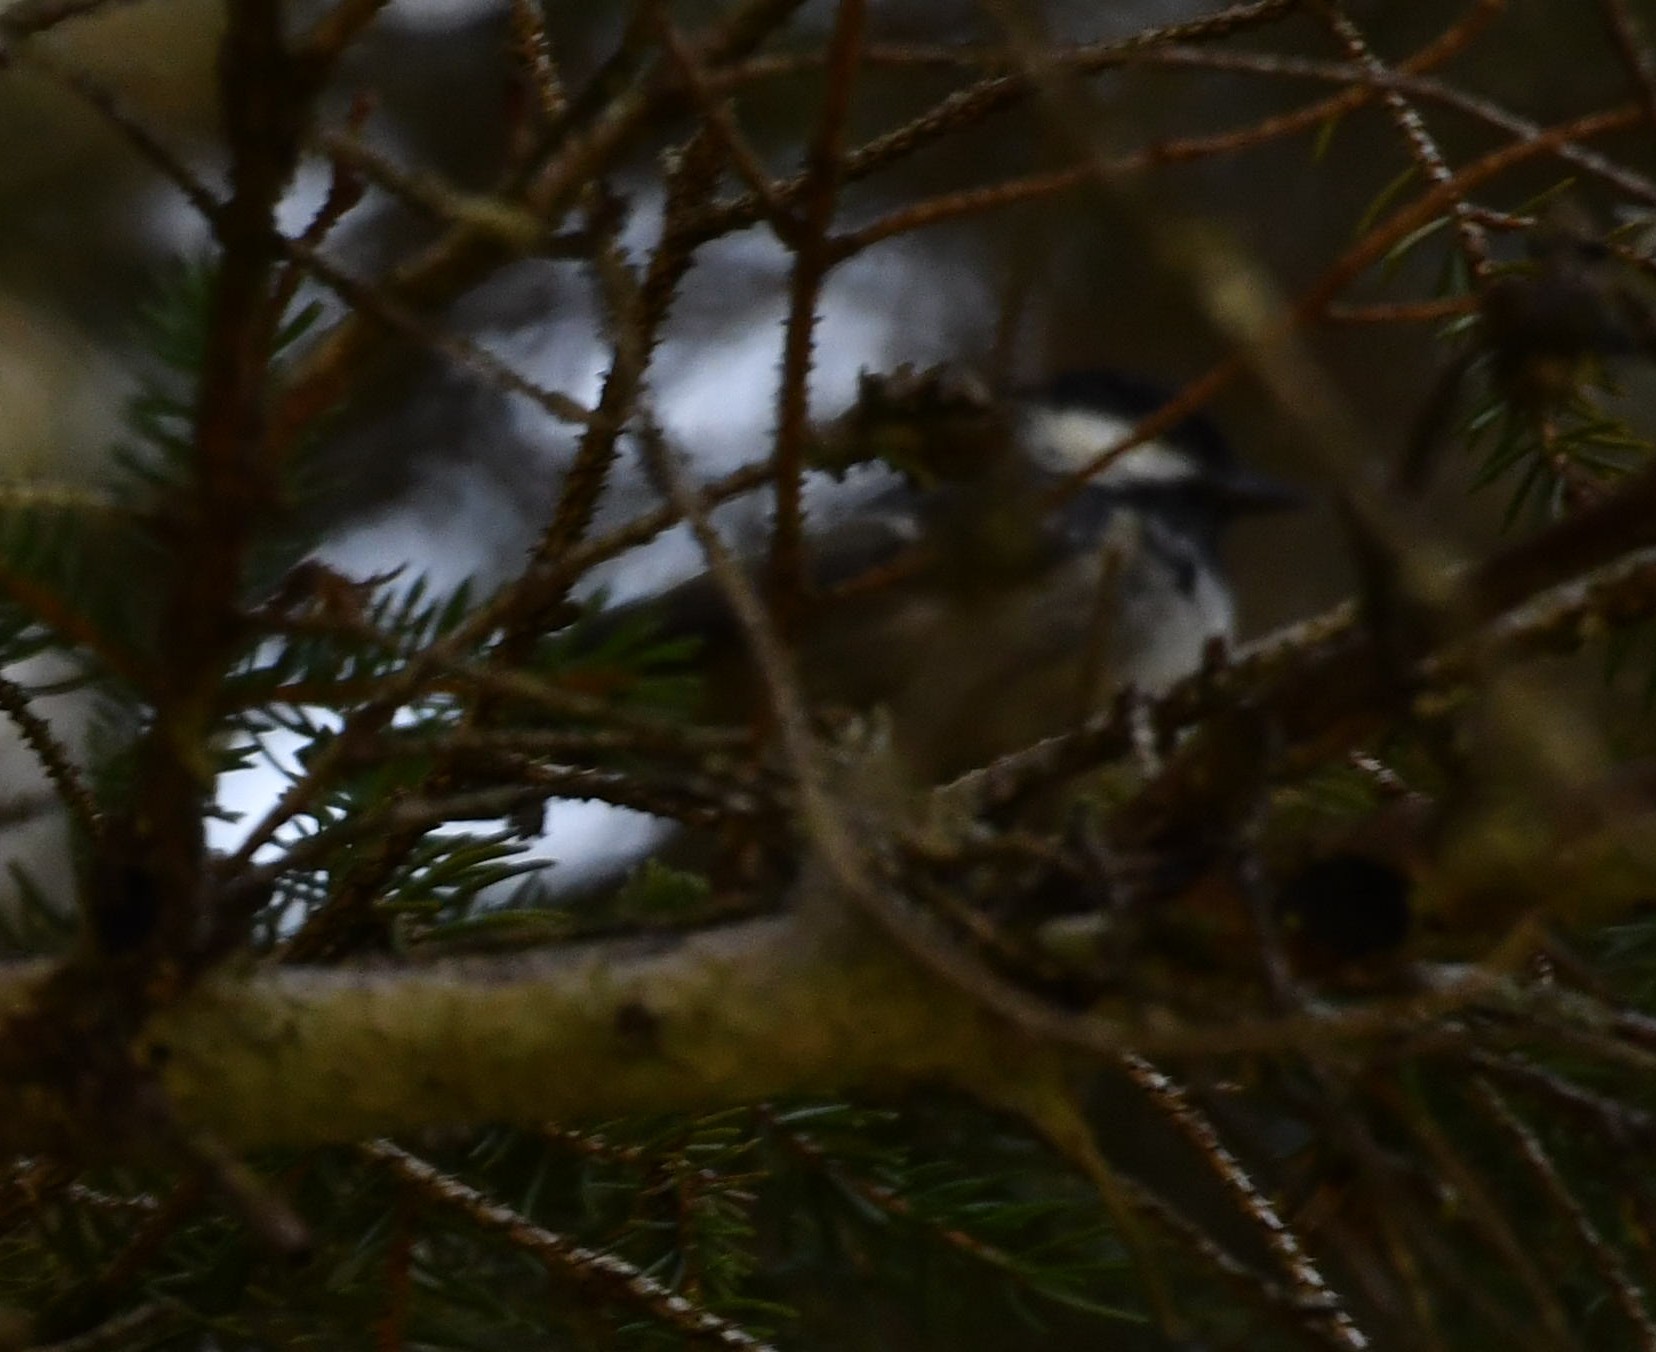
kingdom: Animalia
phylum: Chordata
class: Aves
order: Passeriformes
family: Paridae
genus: Periparus
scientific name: Periparus ater
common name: Coal tit
